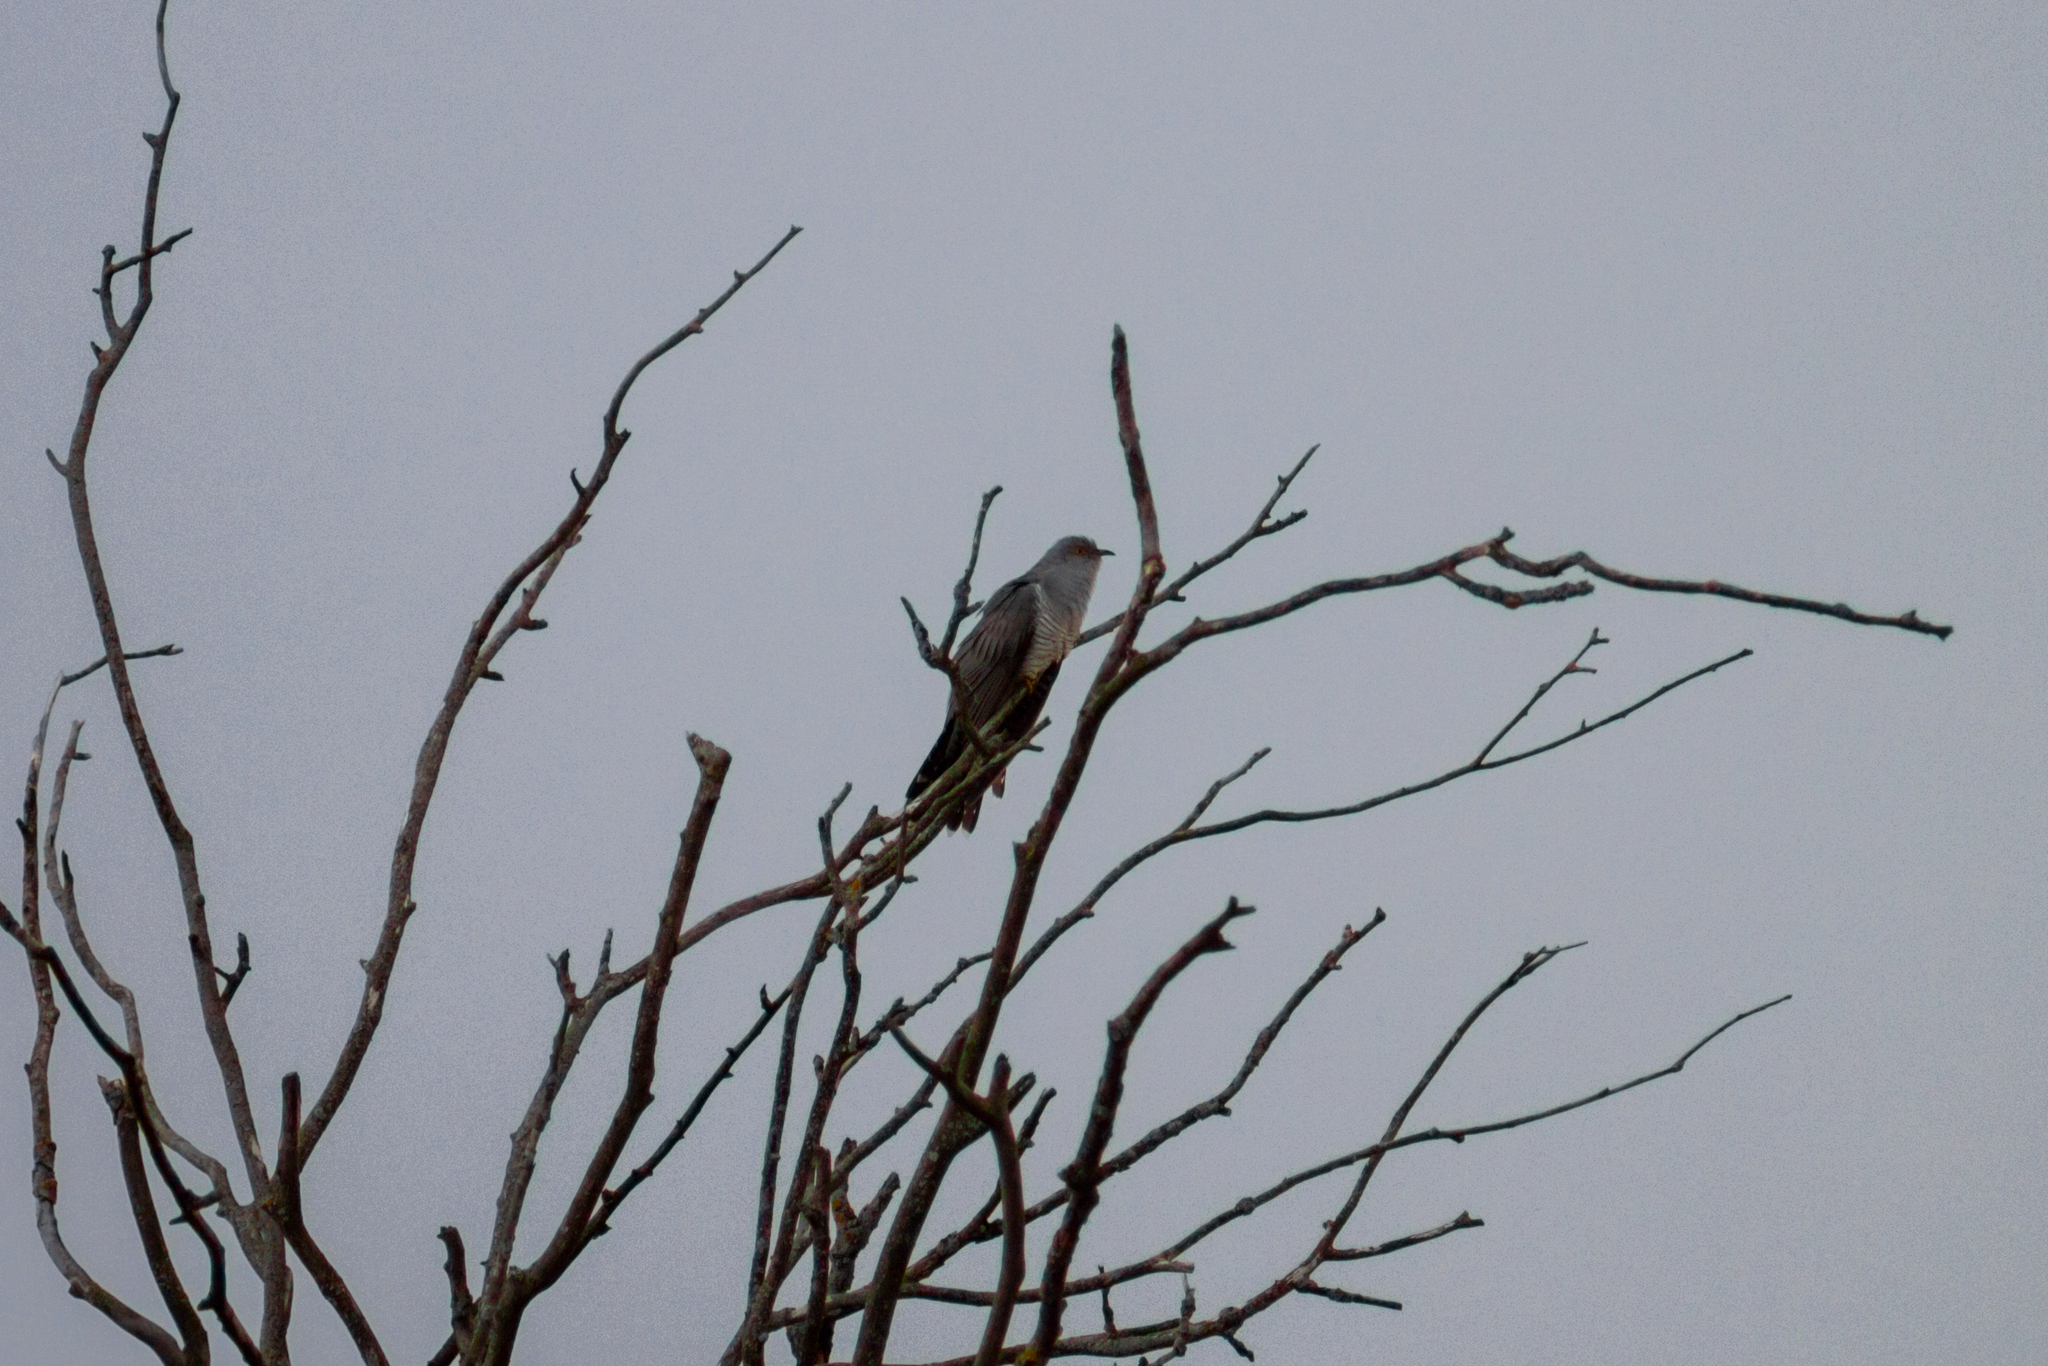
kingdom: Animalia
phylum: Chordata
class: Aves
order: Cuculiformes
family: Cuculidae
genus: Cuculus
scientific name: Cuculus canorus
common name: Common cuckoo
